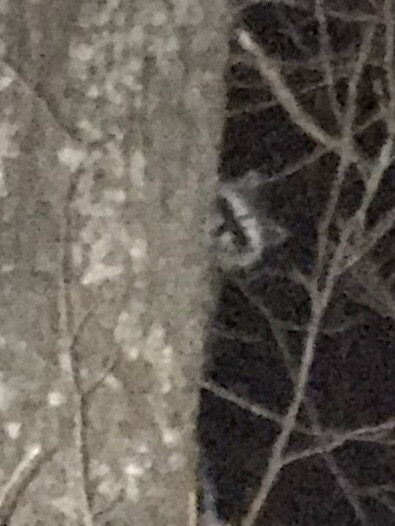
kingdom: Animalia
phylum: Chordata
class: Mammalia
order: Carnivora
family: Procyonidae
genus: Procyon
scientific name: Procyon lotor
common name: Raccoon
